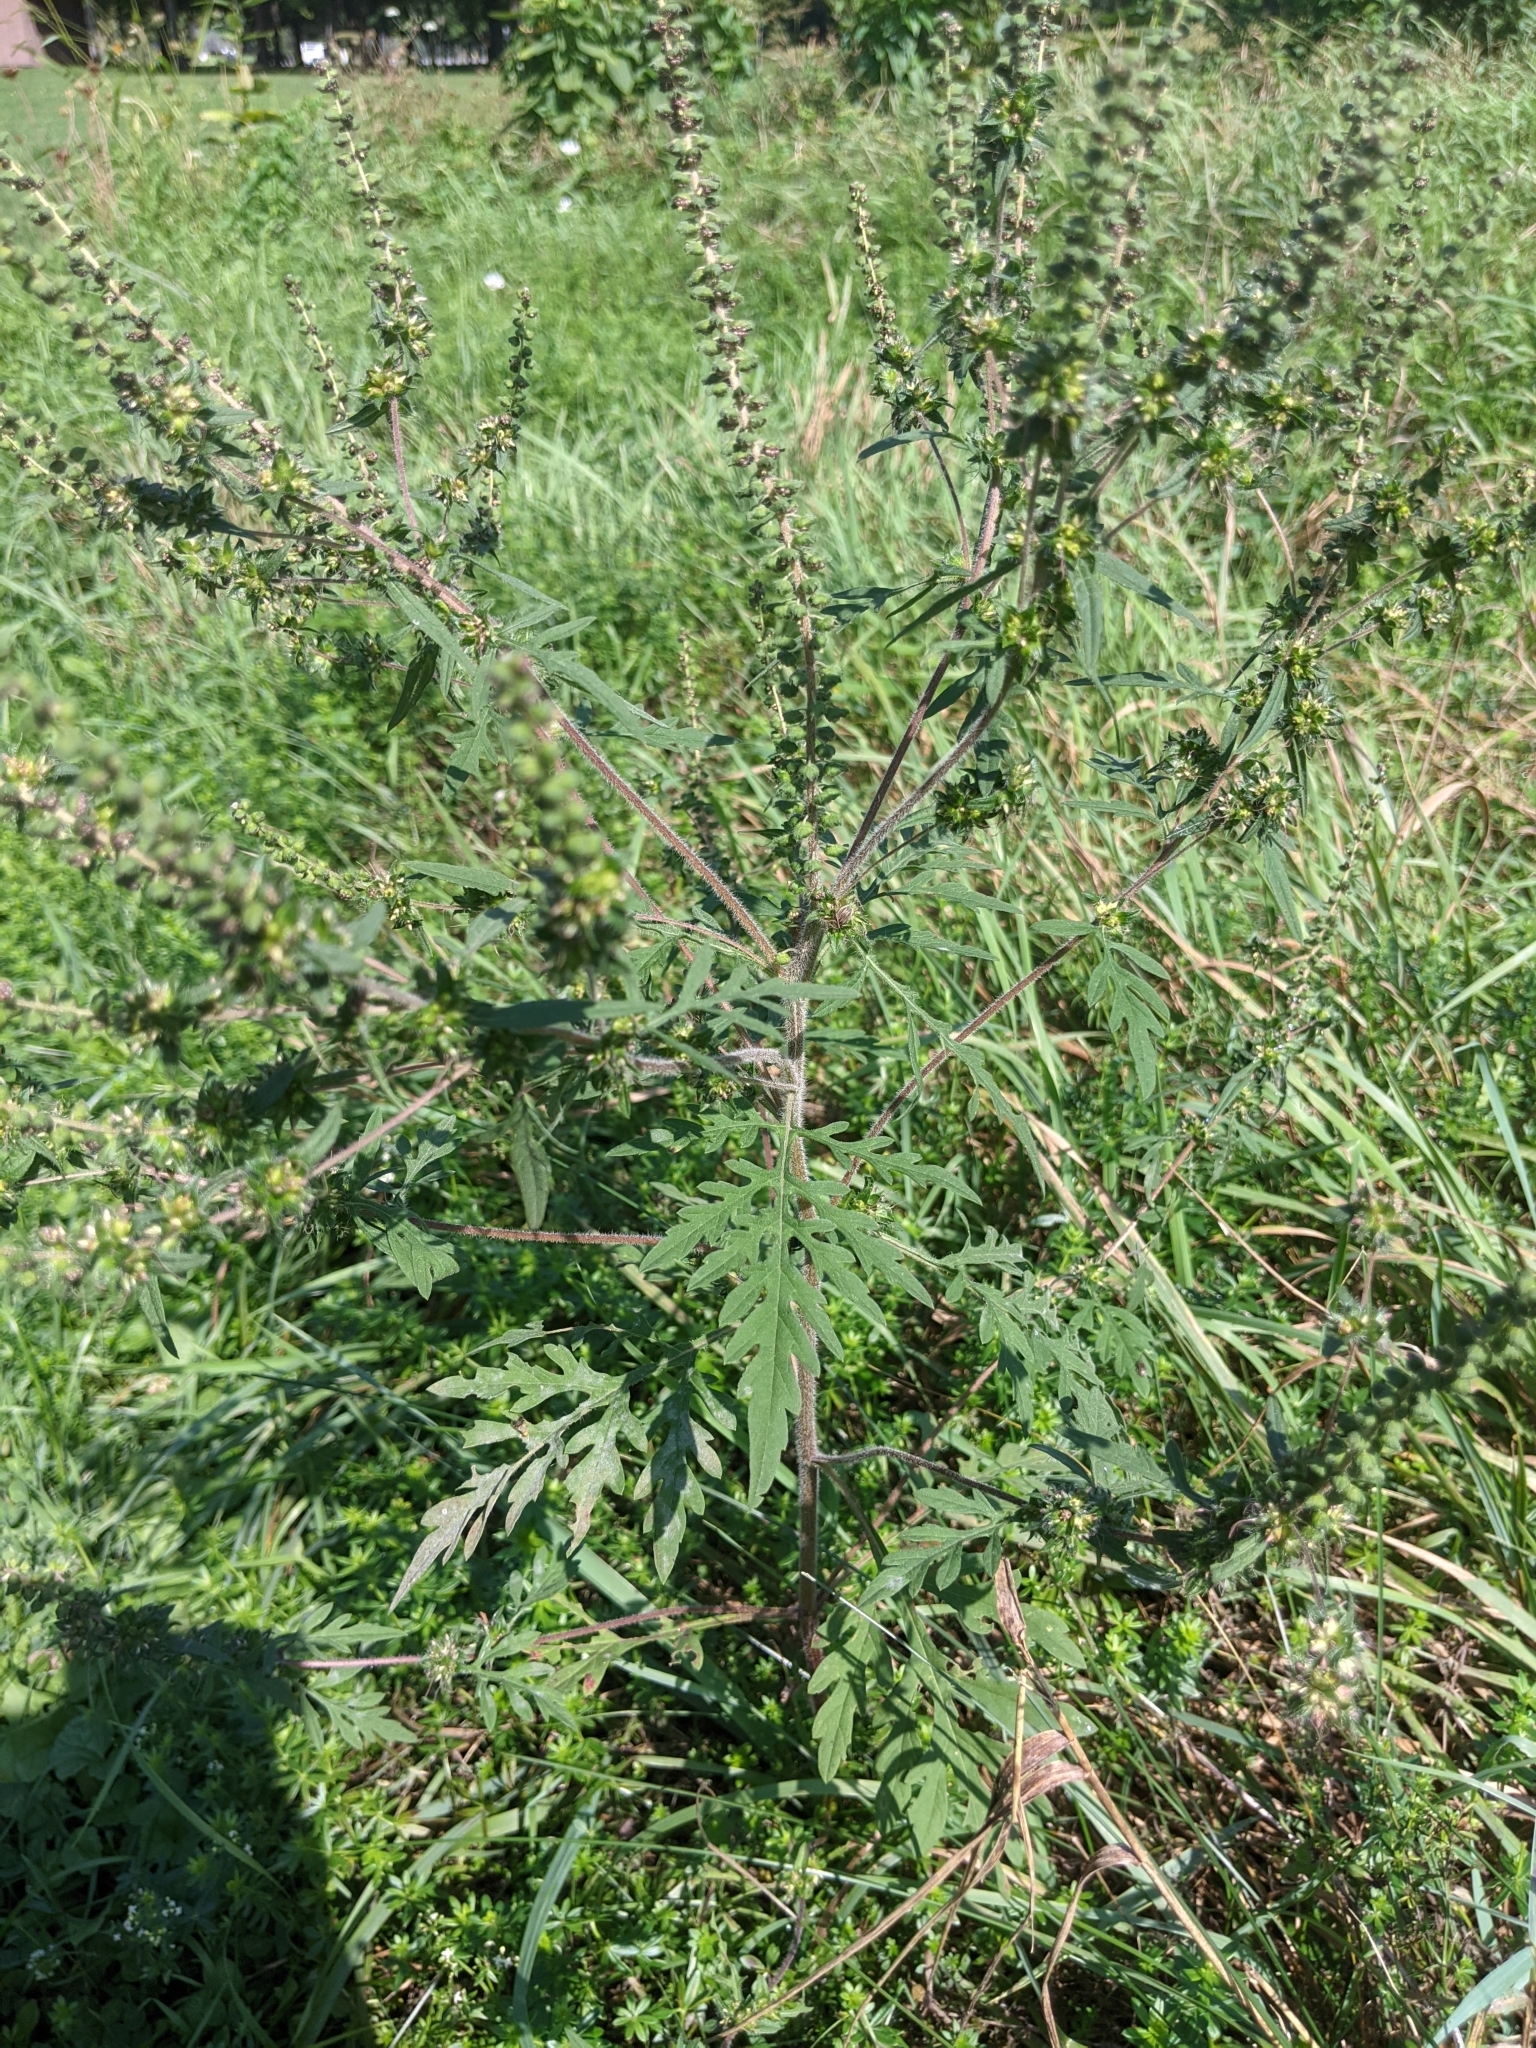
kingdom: Plantae
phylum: Tracheophyta
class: Magnoliopsida
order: Asterales
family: Asteraceae
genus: Ambrosia
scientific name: Ambrosia artemisiifolia
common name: Annual ragweed
